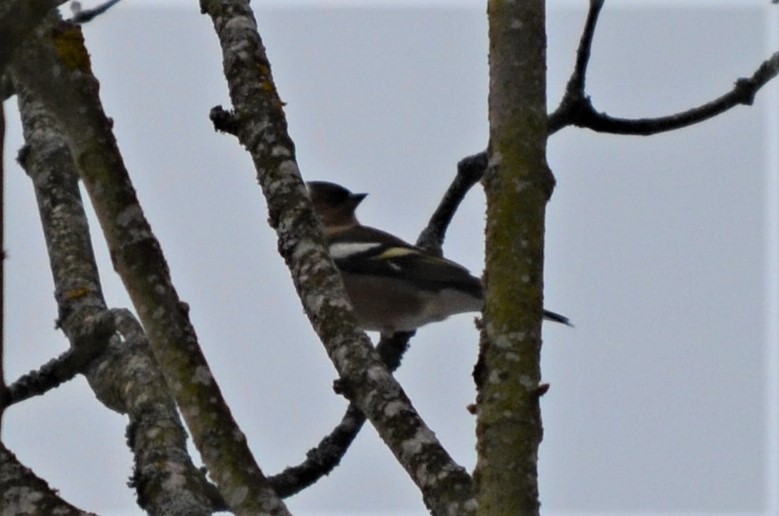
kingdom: Animalia
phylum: Chordata
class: Aves
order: Passeriformes
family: Fringillidae
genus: Fringilla
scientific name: Fringilla coelebs
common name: Common chaffinch
